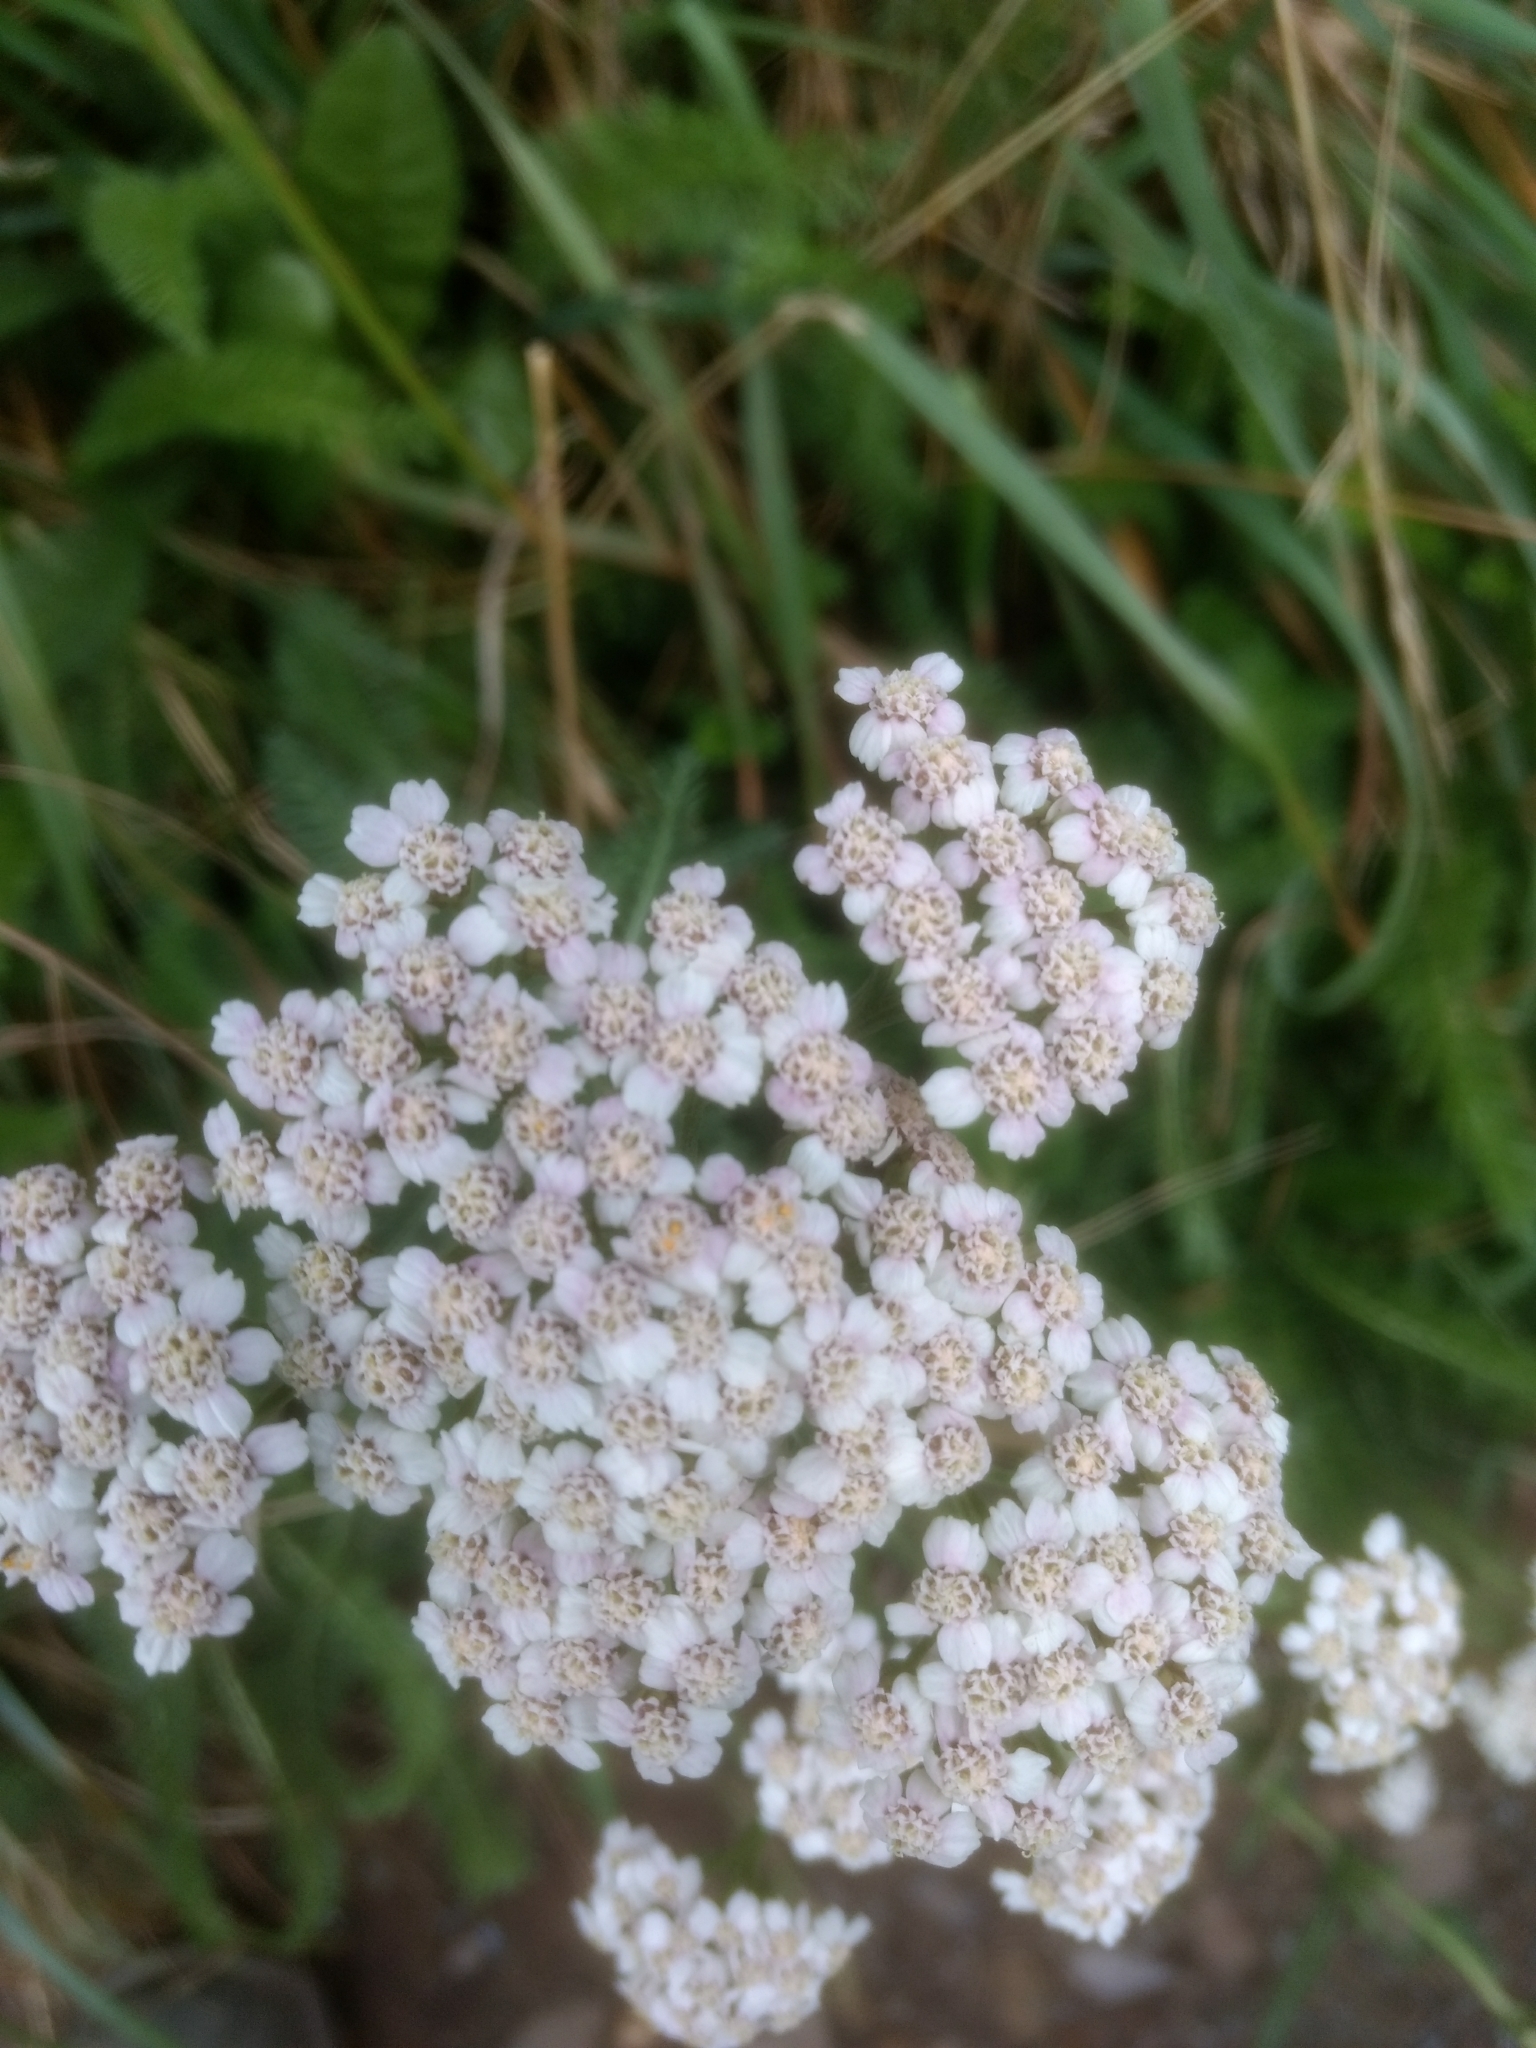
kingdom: Plantae
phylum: Tracheophyta
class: Magnoliopsida
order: Asterales
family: Asteraceae
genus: Achillea
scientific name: Achillea millefolium
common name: Yarrow
